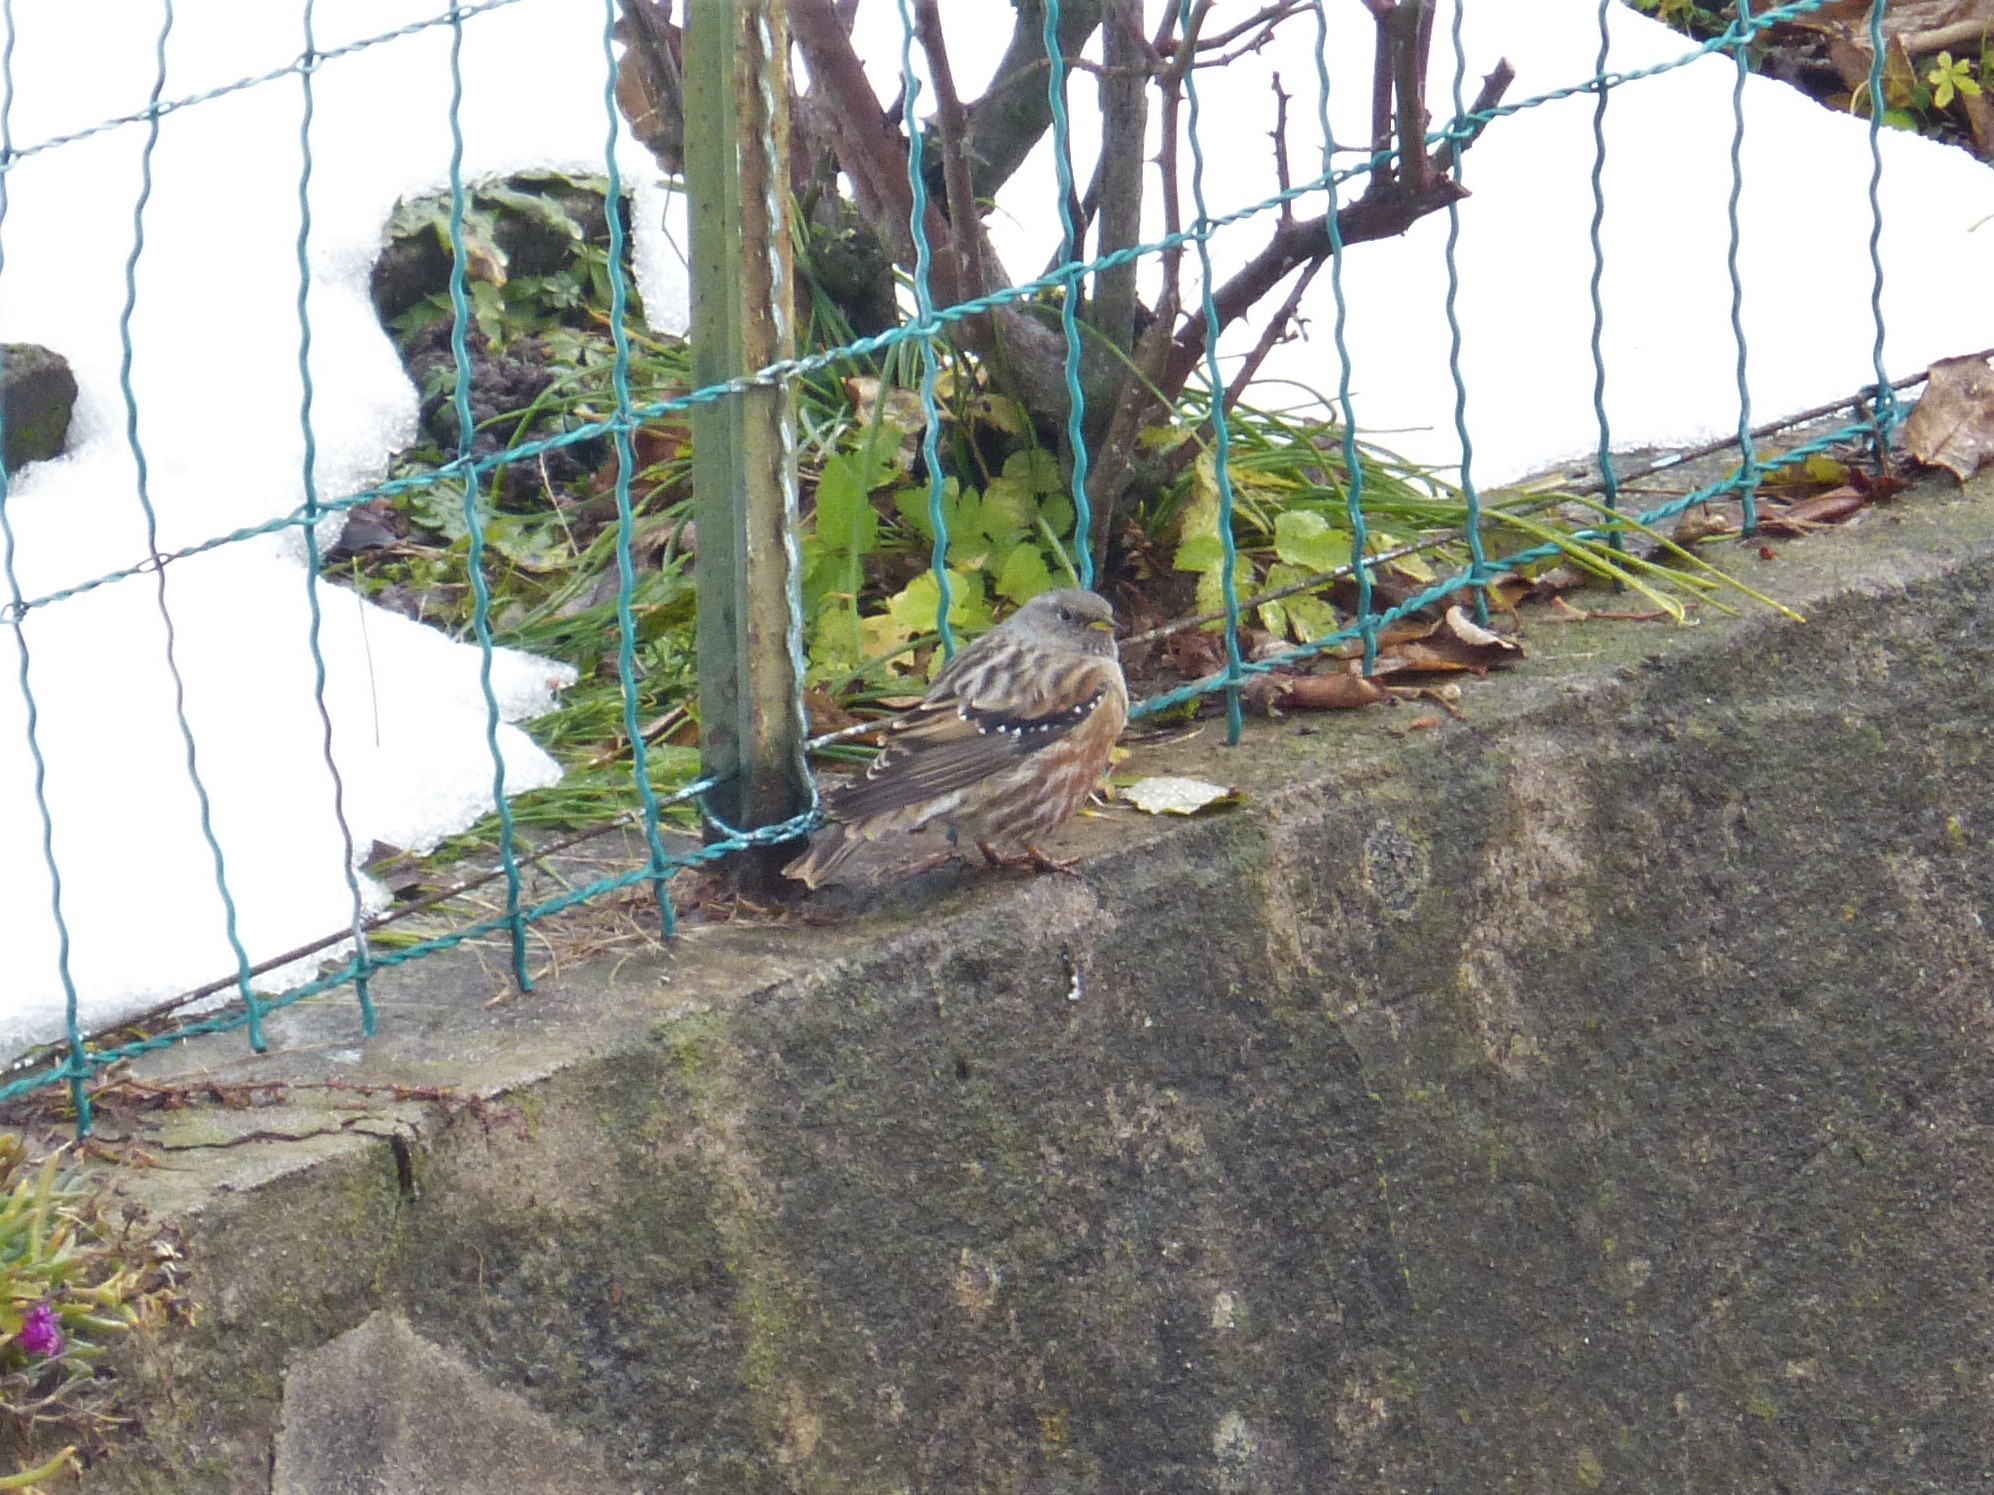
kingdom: Animalia
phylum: Chordata
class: Aves
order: Passeriformes
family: Prunellidae
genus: Prunella
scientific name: Prunella collaris
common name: Alpine accentor
